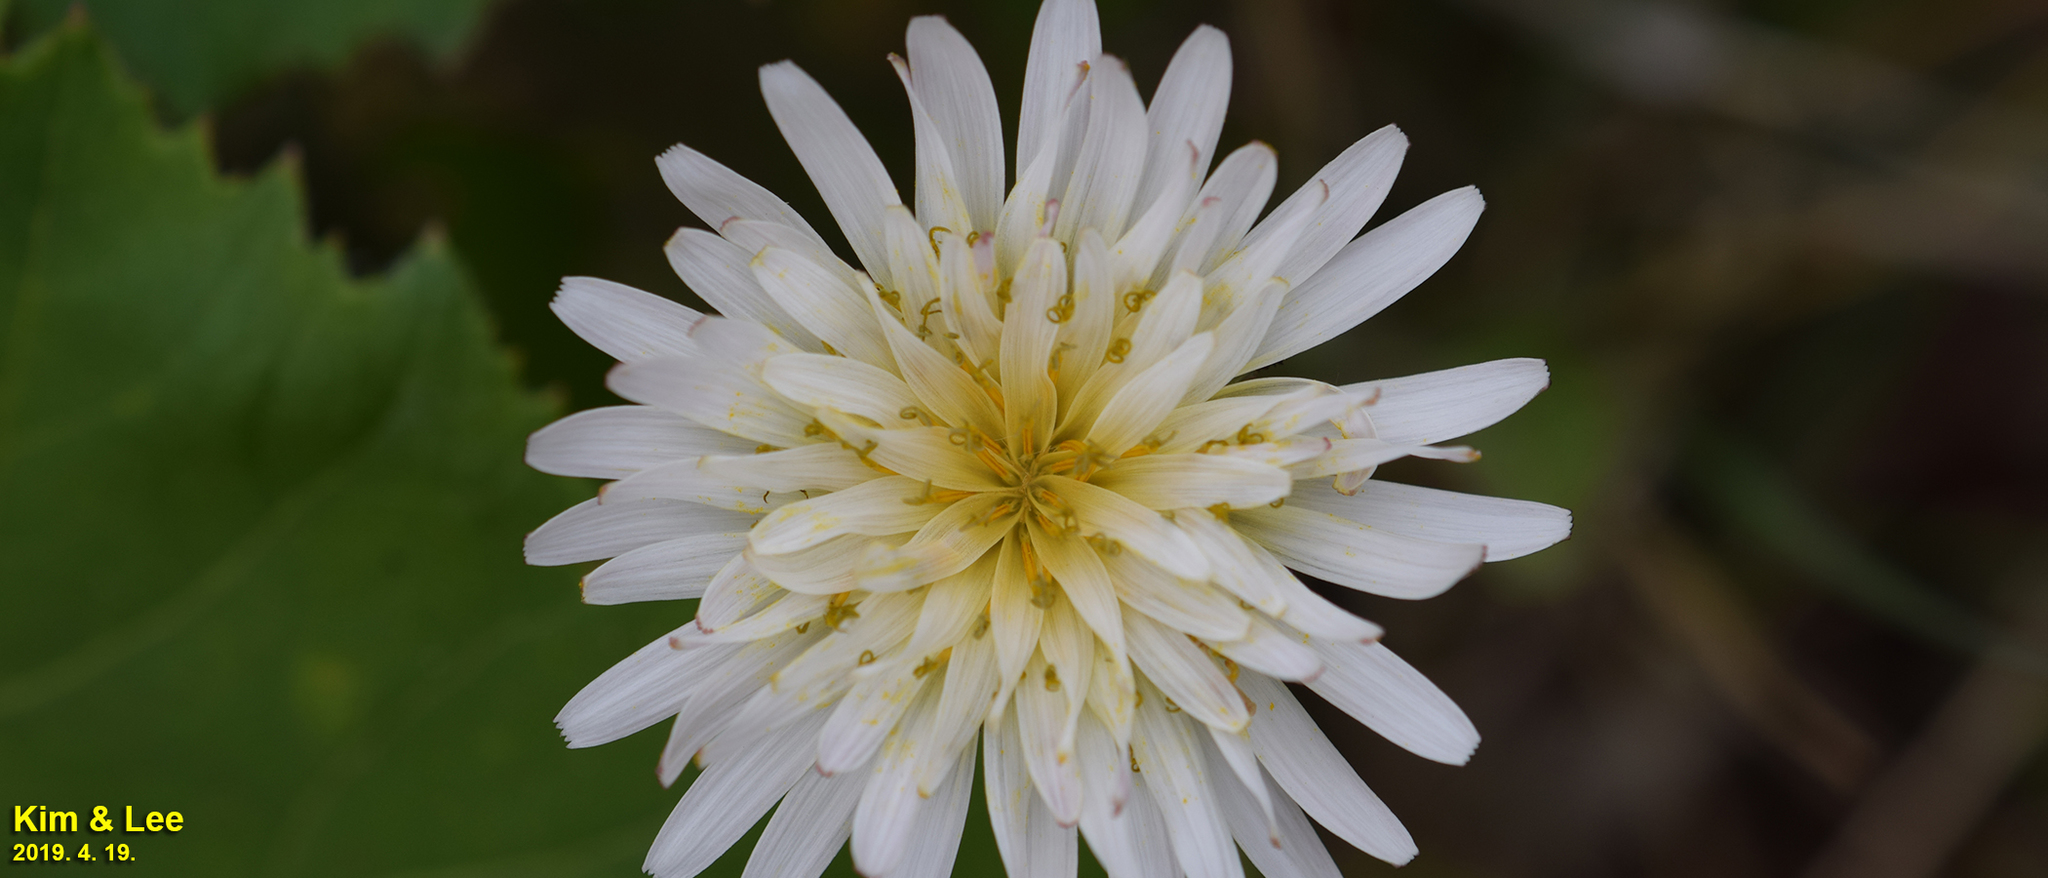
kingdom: Plantae
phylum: Tracheophyta
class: Magnoliopsida
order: Asterales
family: Asteraceae
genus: Taraxacum
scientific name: Taraxacum coreanum
